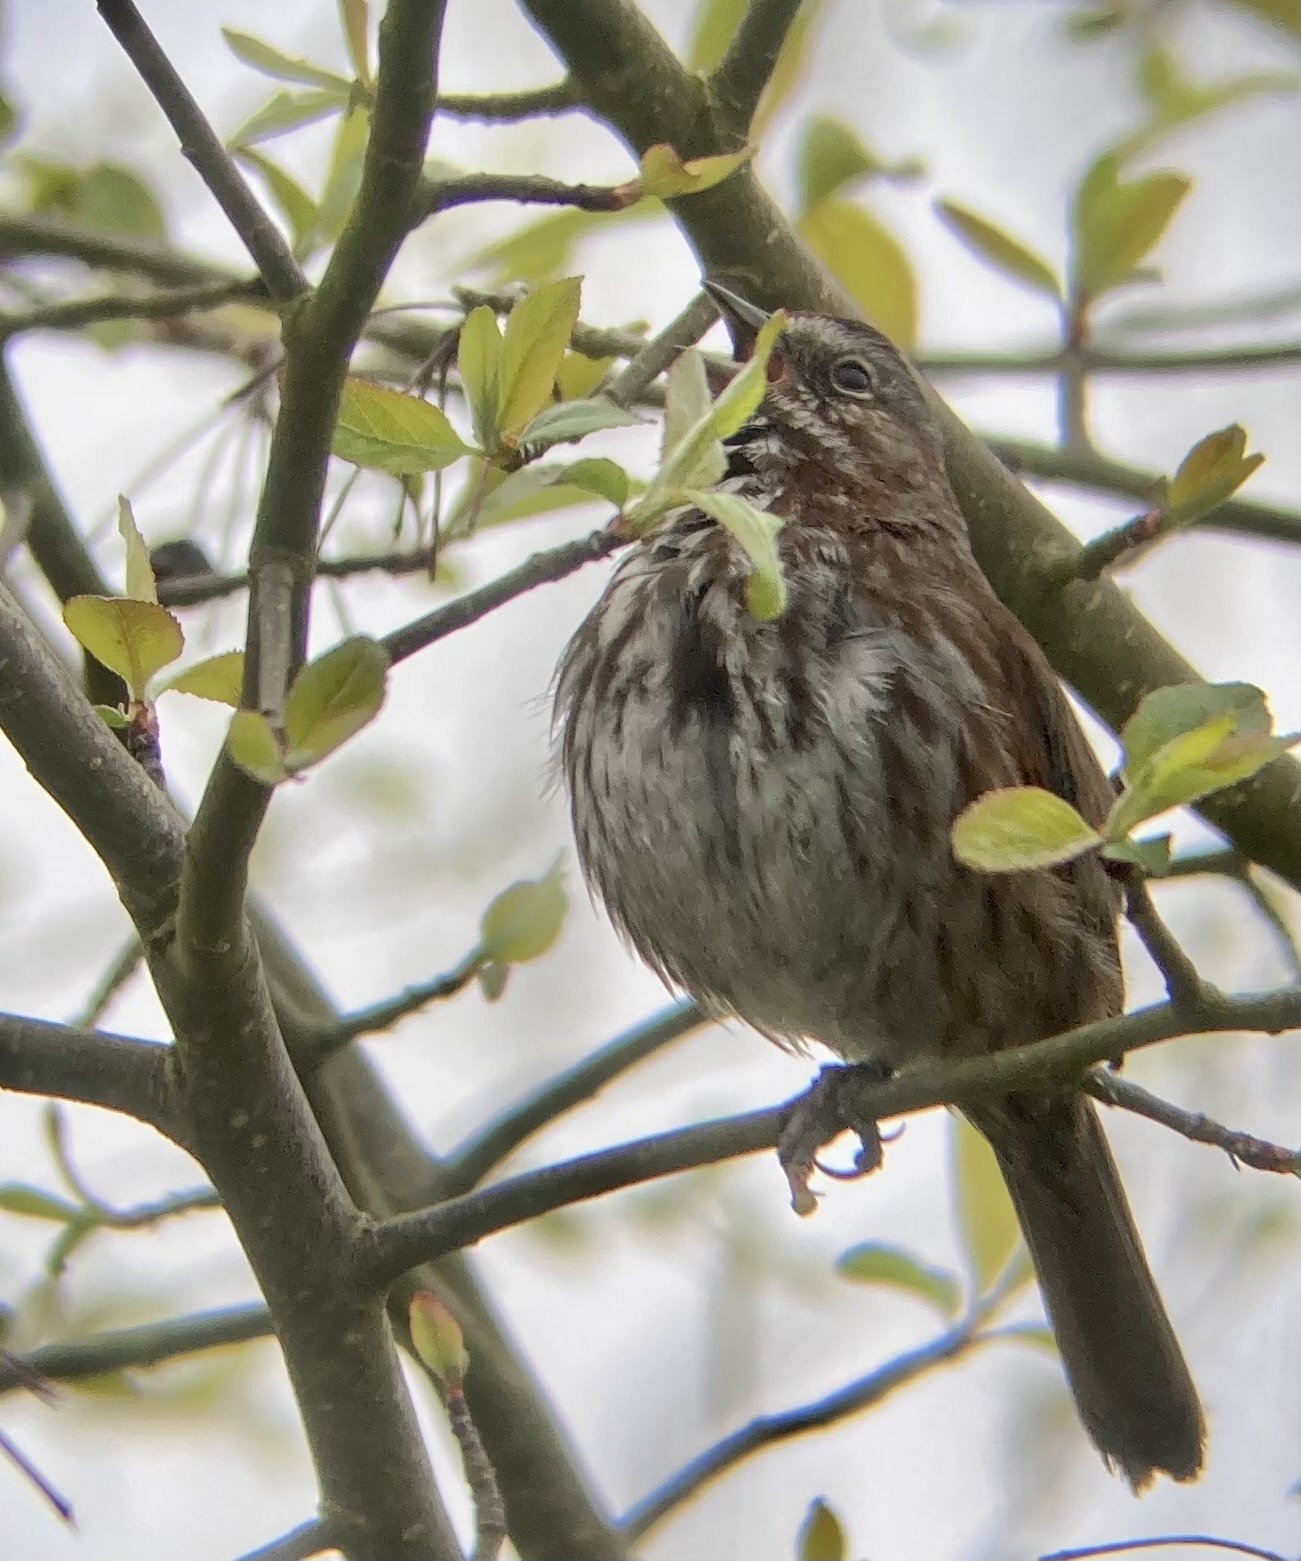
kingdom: Animalia
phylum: Chordata
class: Aves
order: Passeriformes
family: Passerellidae
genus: Melospiza
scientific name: Melospiza melodia
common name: Song sparrow
